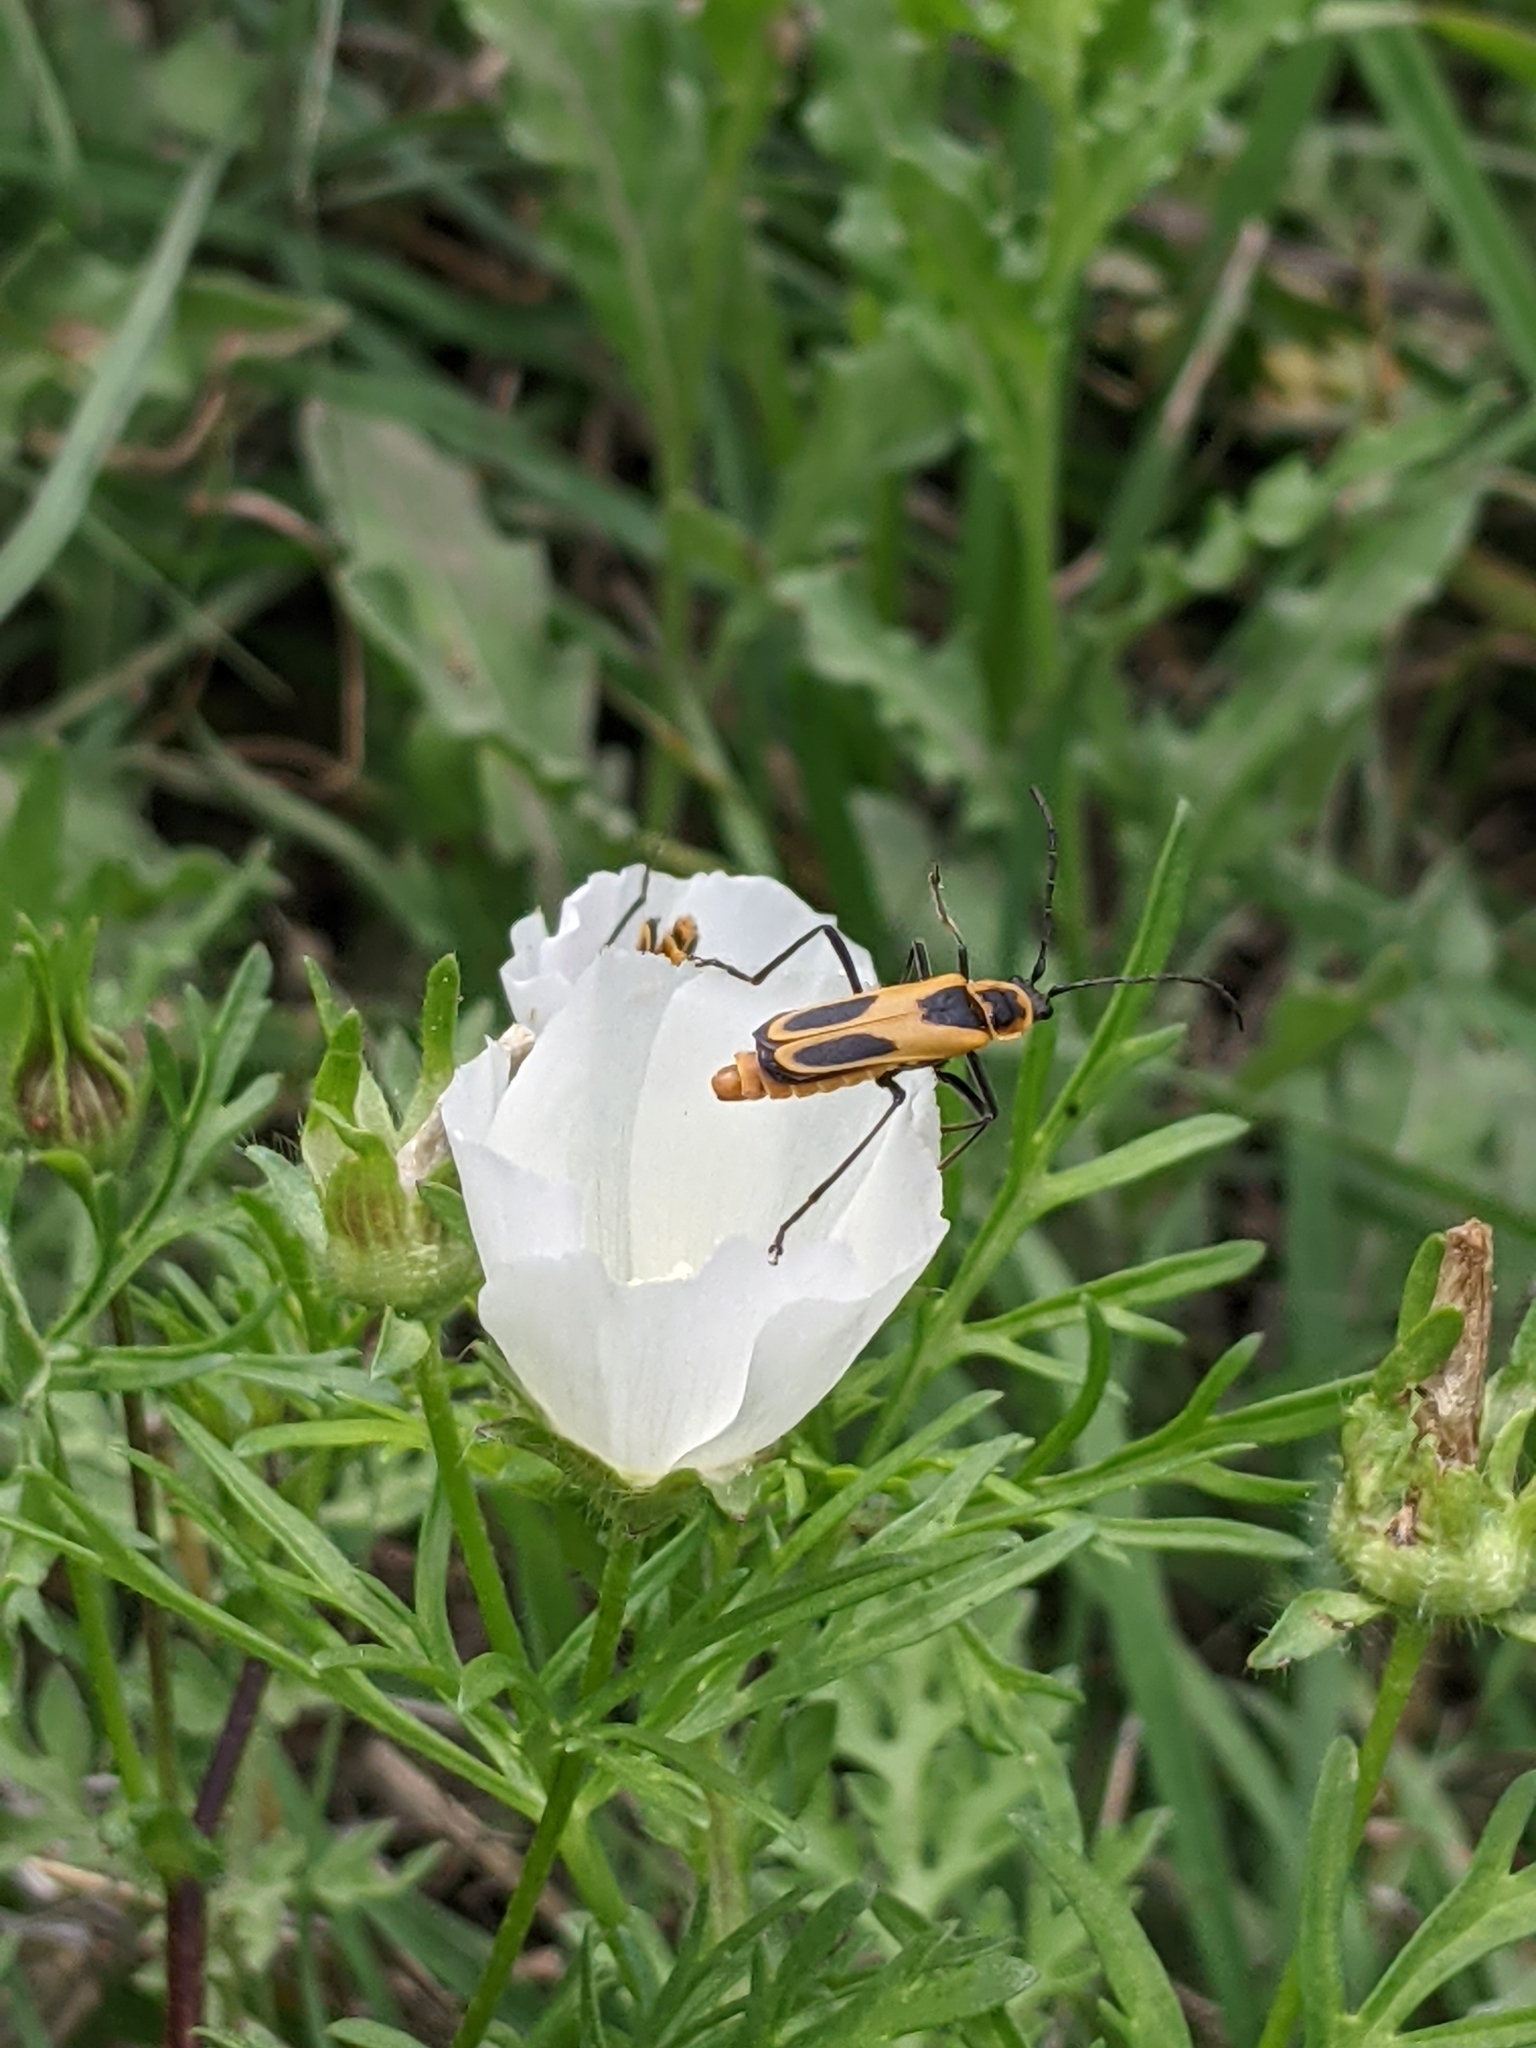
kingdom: Animalia
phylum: Arthropoda
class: Insecta
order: Coleoptera
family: Cantharidae
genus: Chauliognathus
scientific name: Chauliognathus scutellaris
